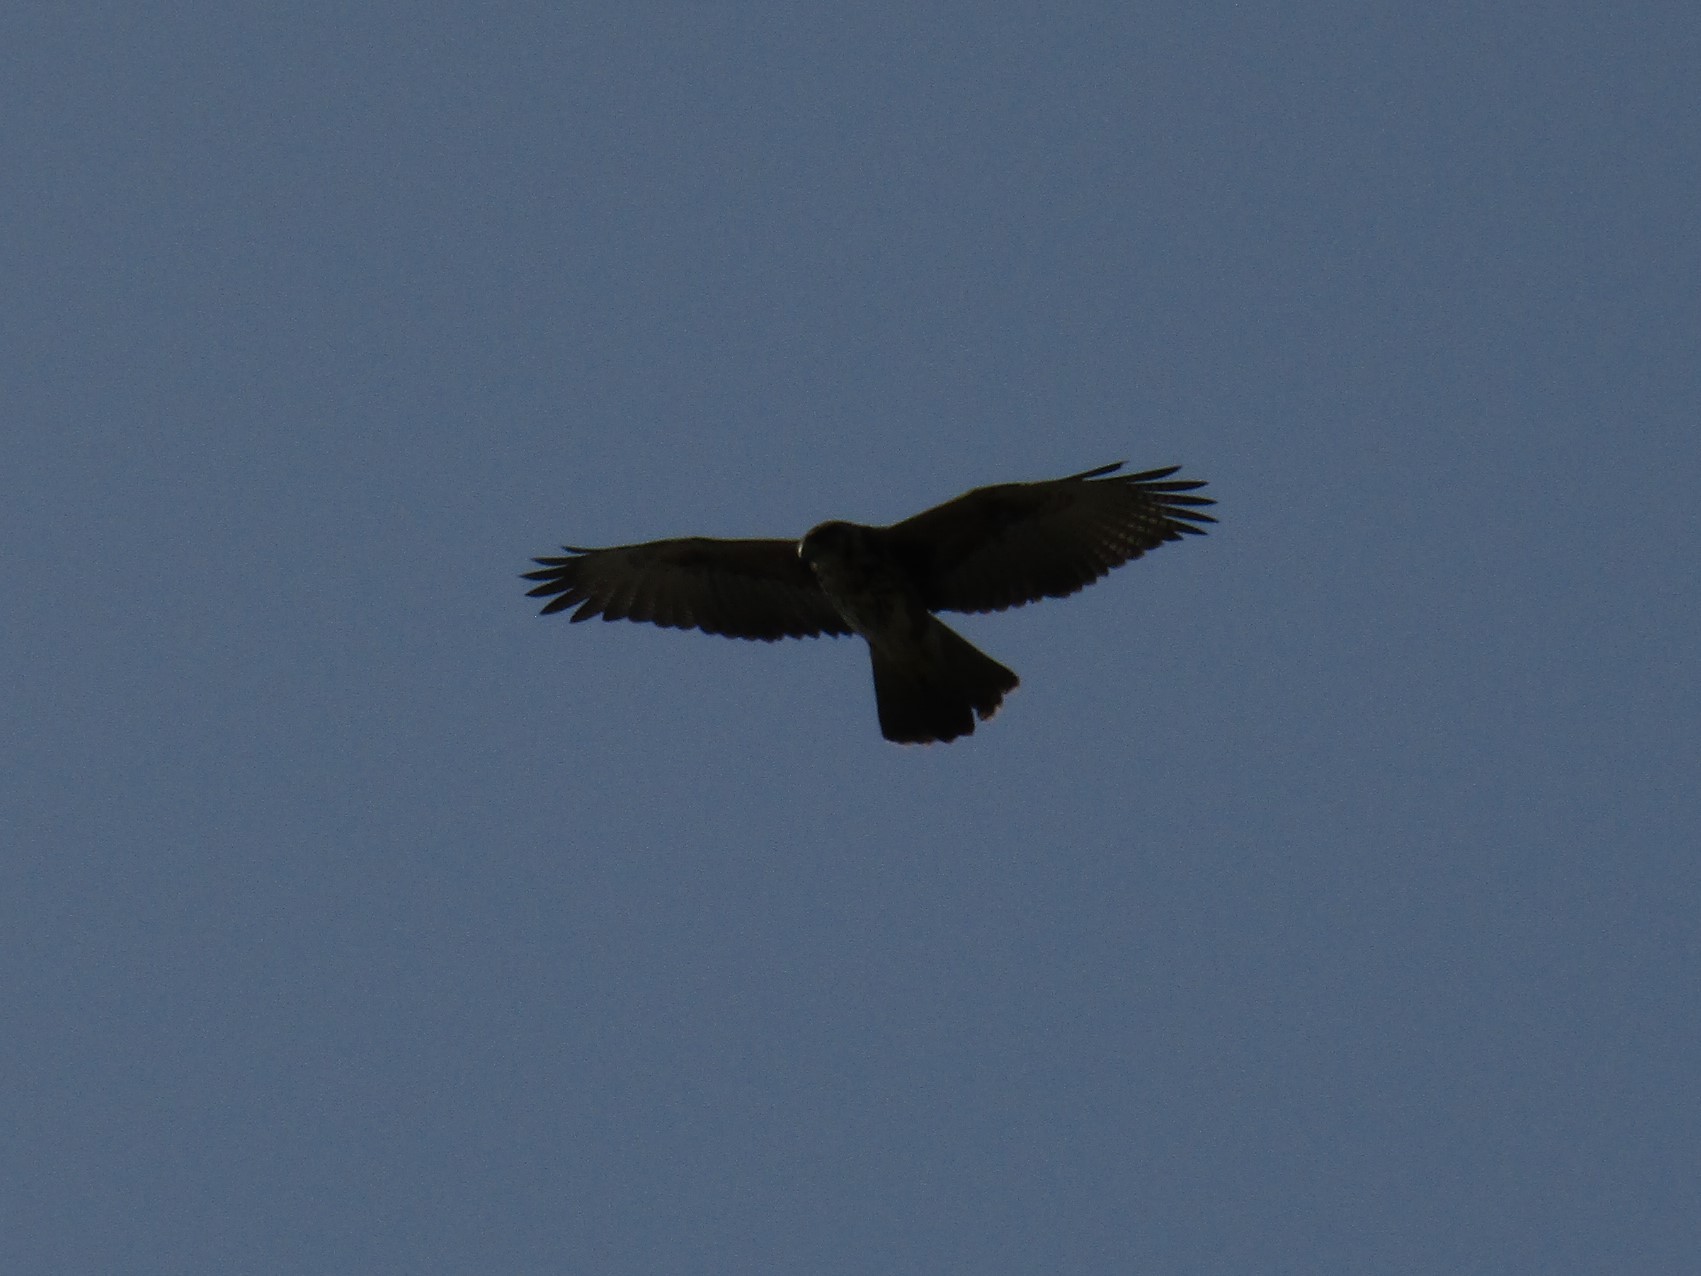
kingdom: Animalia
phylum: Chordata
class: Aves
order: Accipitriformes
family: Accipitridae
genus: Parabuteo
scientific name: Parabuteo unicinctus
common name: Harris's hawk
